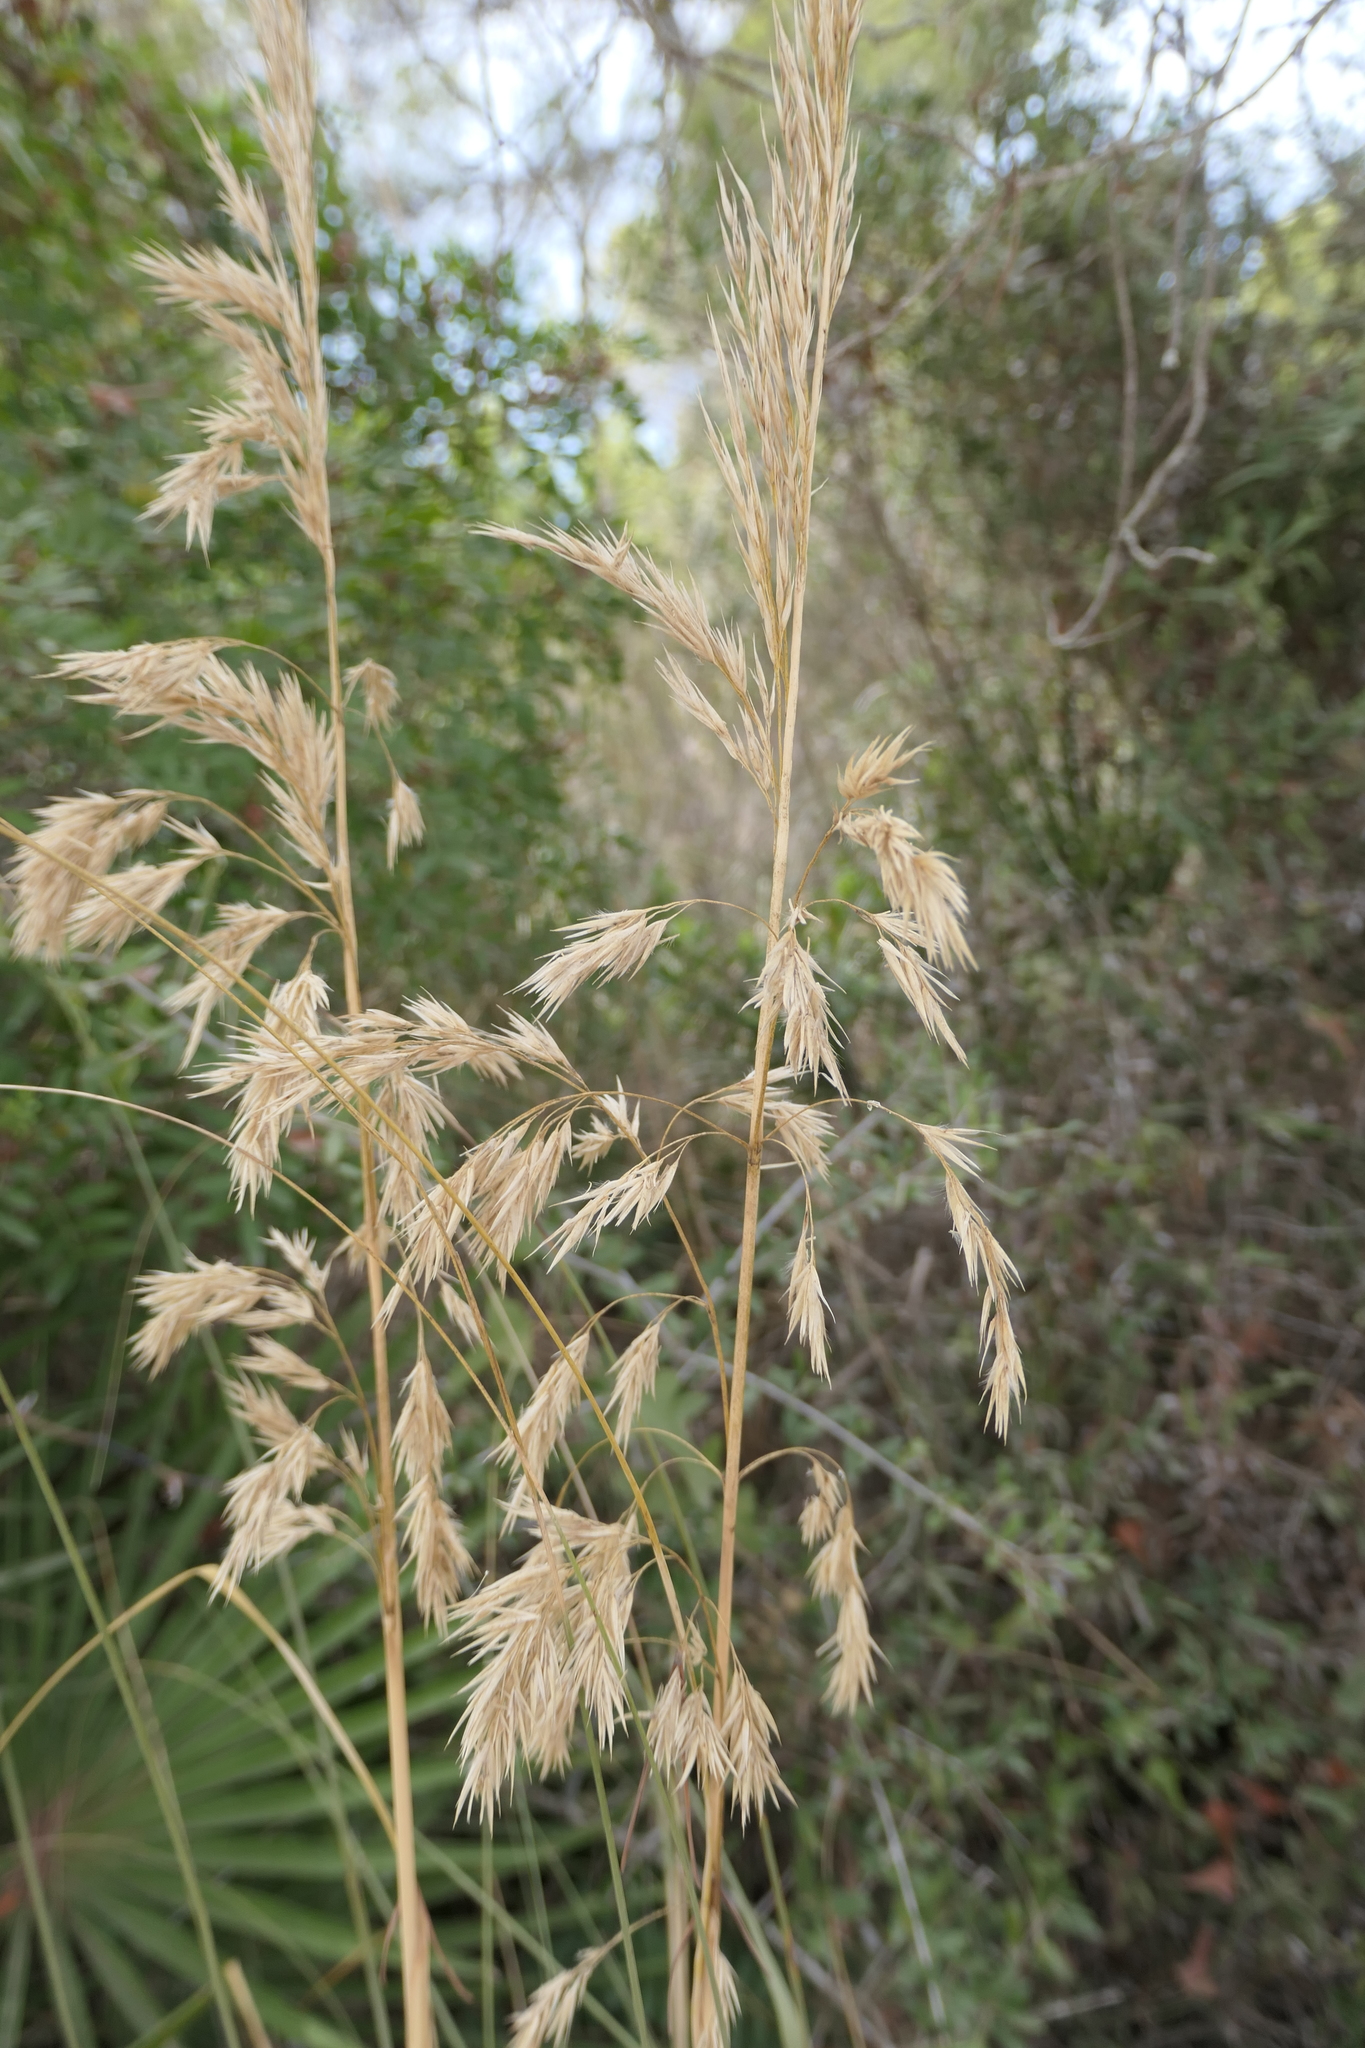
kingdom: Plantae
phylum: Tracheophyta
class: Liliopsida
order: Poales
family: Poaceae
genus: Ampelodesmos
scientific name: Ampelodesmos mauritanicus
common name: Mauritanian grass
